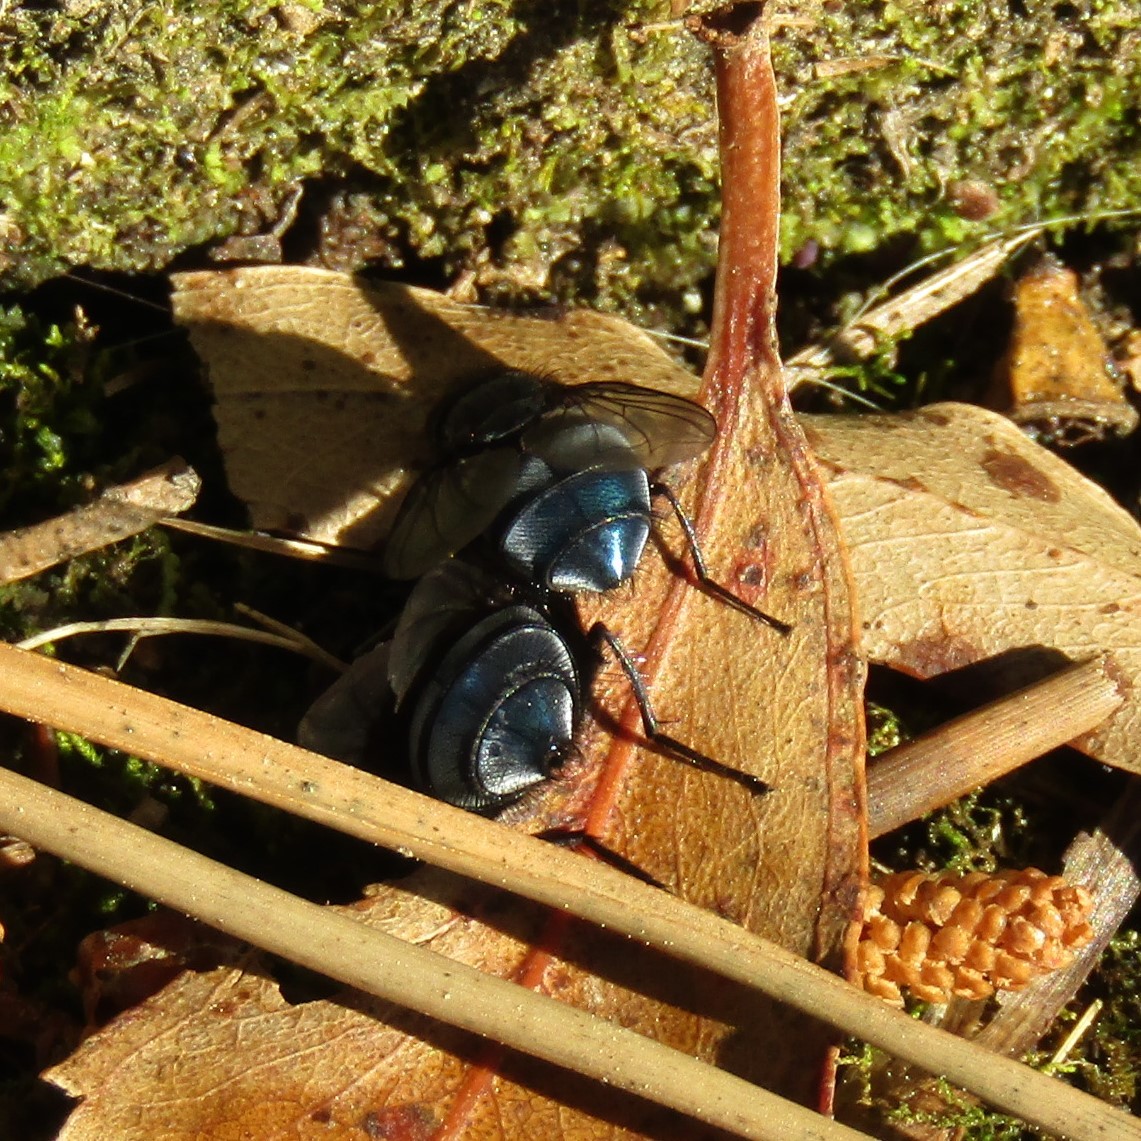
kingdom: Animalia
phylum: Arthropoda
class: Insecta
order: Diptera
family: Calliphoridae
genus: Calliphora
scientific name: Calliphora vicina
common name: Common blow flie
